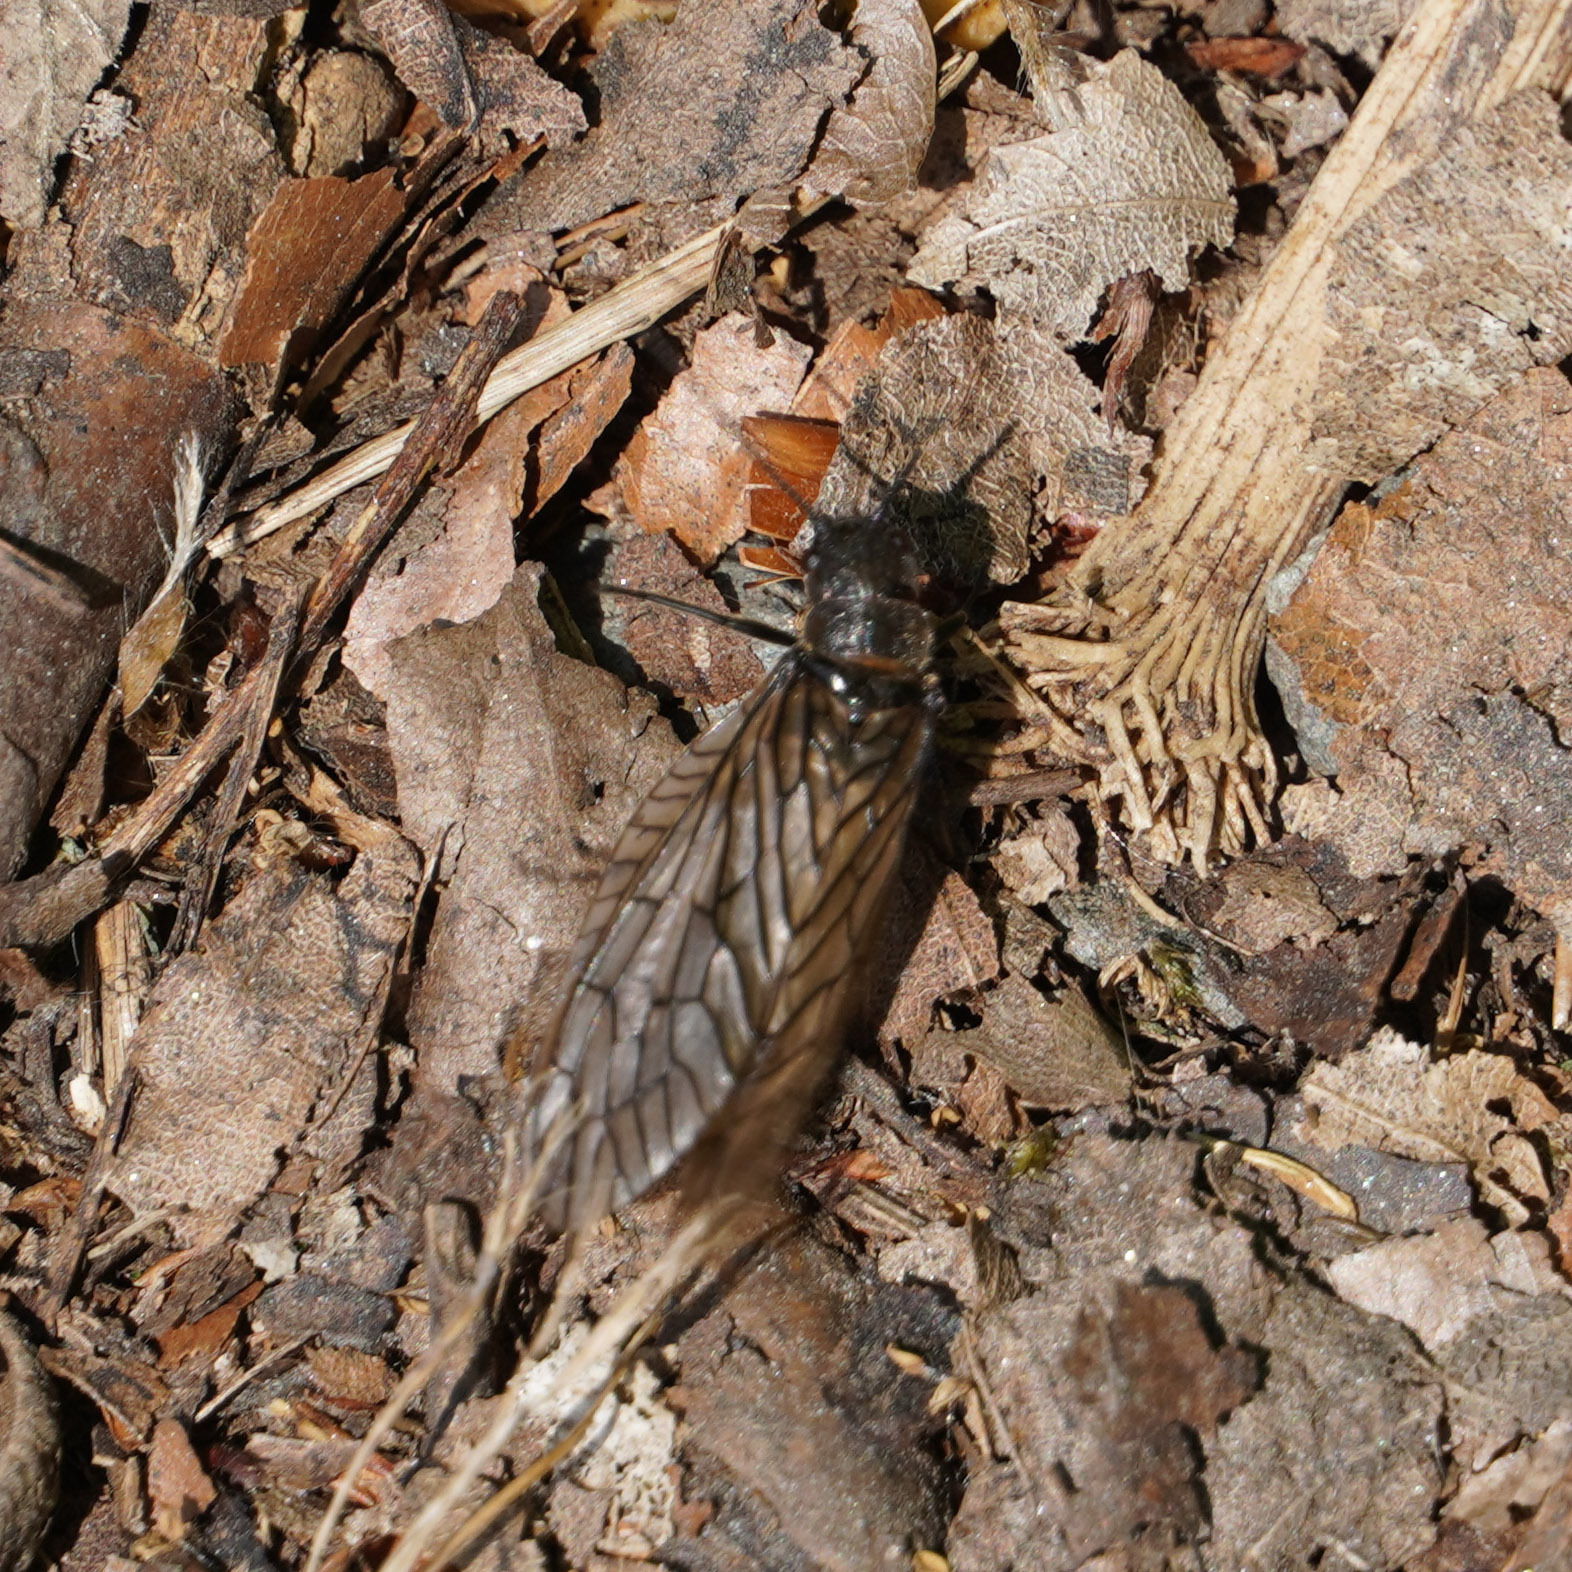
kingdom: Animalia
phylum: Arthropoda
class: Insecta
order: Megaloptera
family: Sialidae
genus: Sialis
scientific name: Sialis
